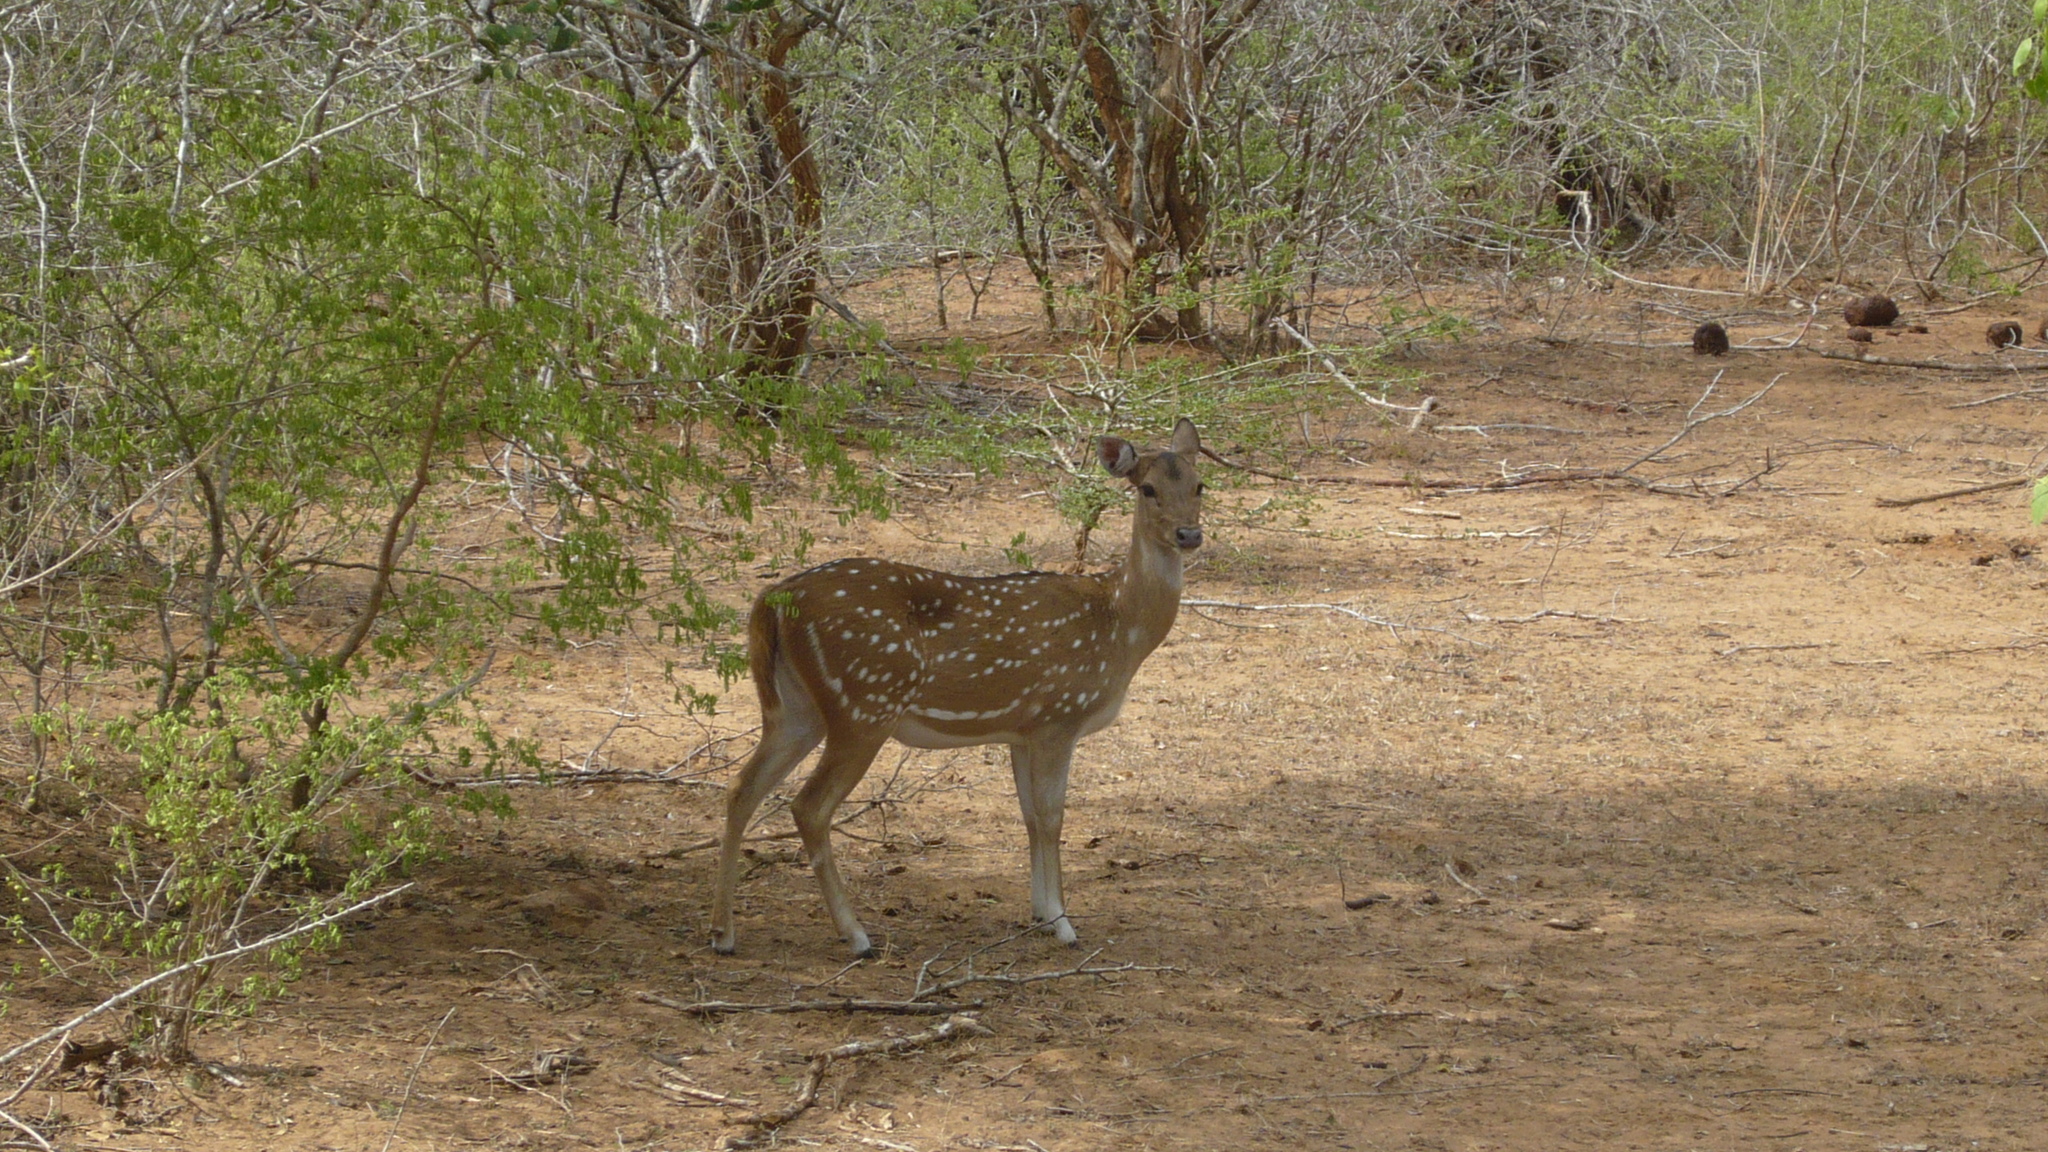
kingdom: Animalia
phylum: Chordata
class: Mammalia
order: Artiodactyla
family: Cervidae
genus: Axis
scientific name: Axis axis
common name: Chital
